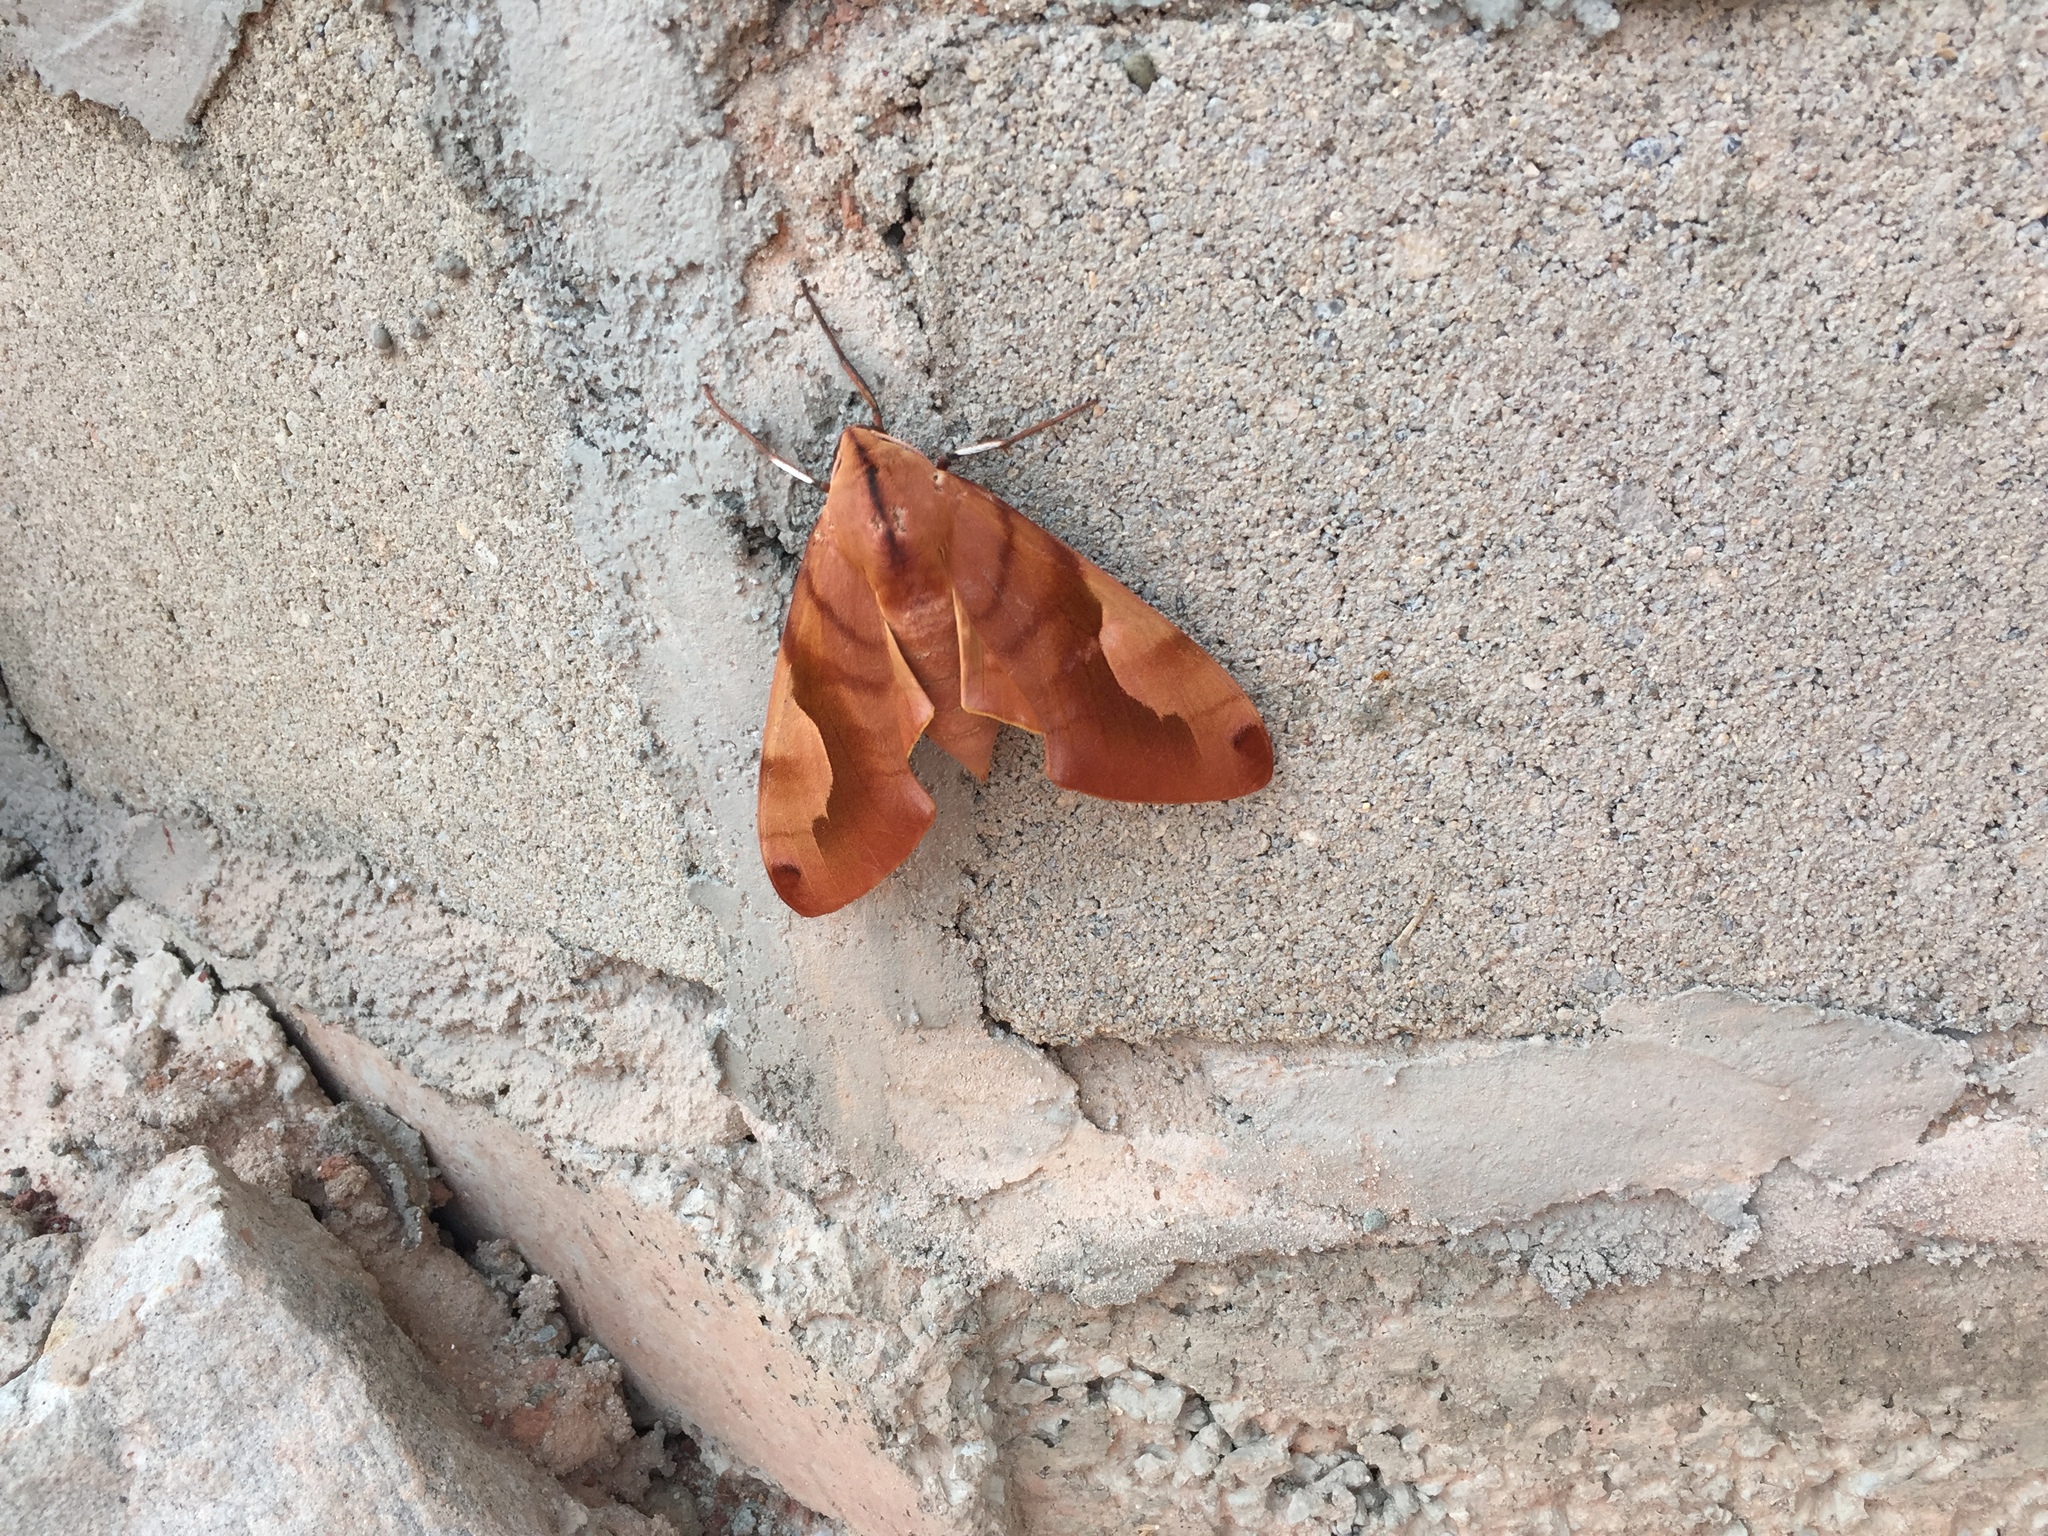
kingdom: Animalia
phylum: Arthropoda
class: Insecta
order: Lepidoptera
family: Sphingidae
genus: Clanis
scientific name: Clanis titan
